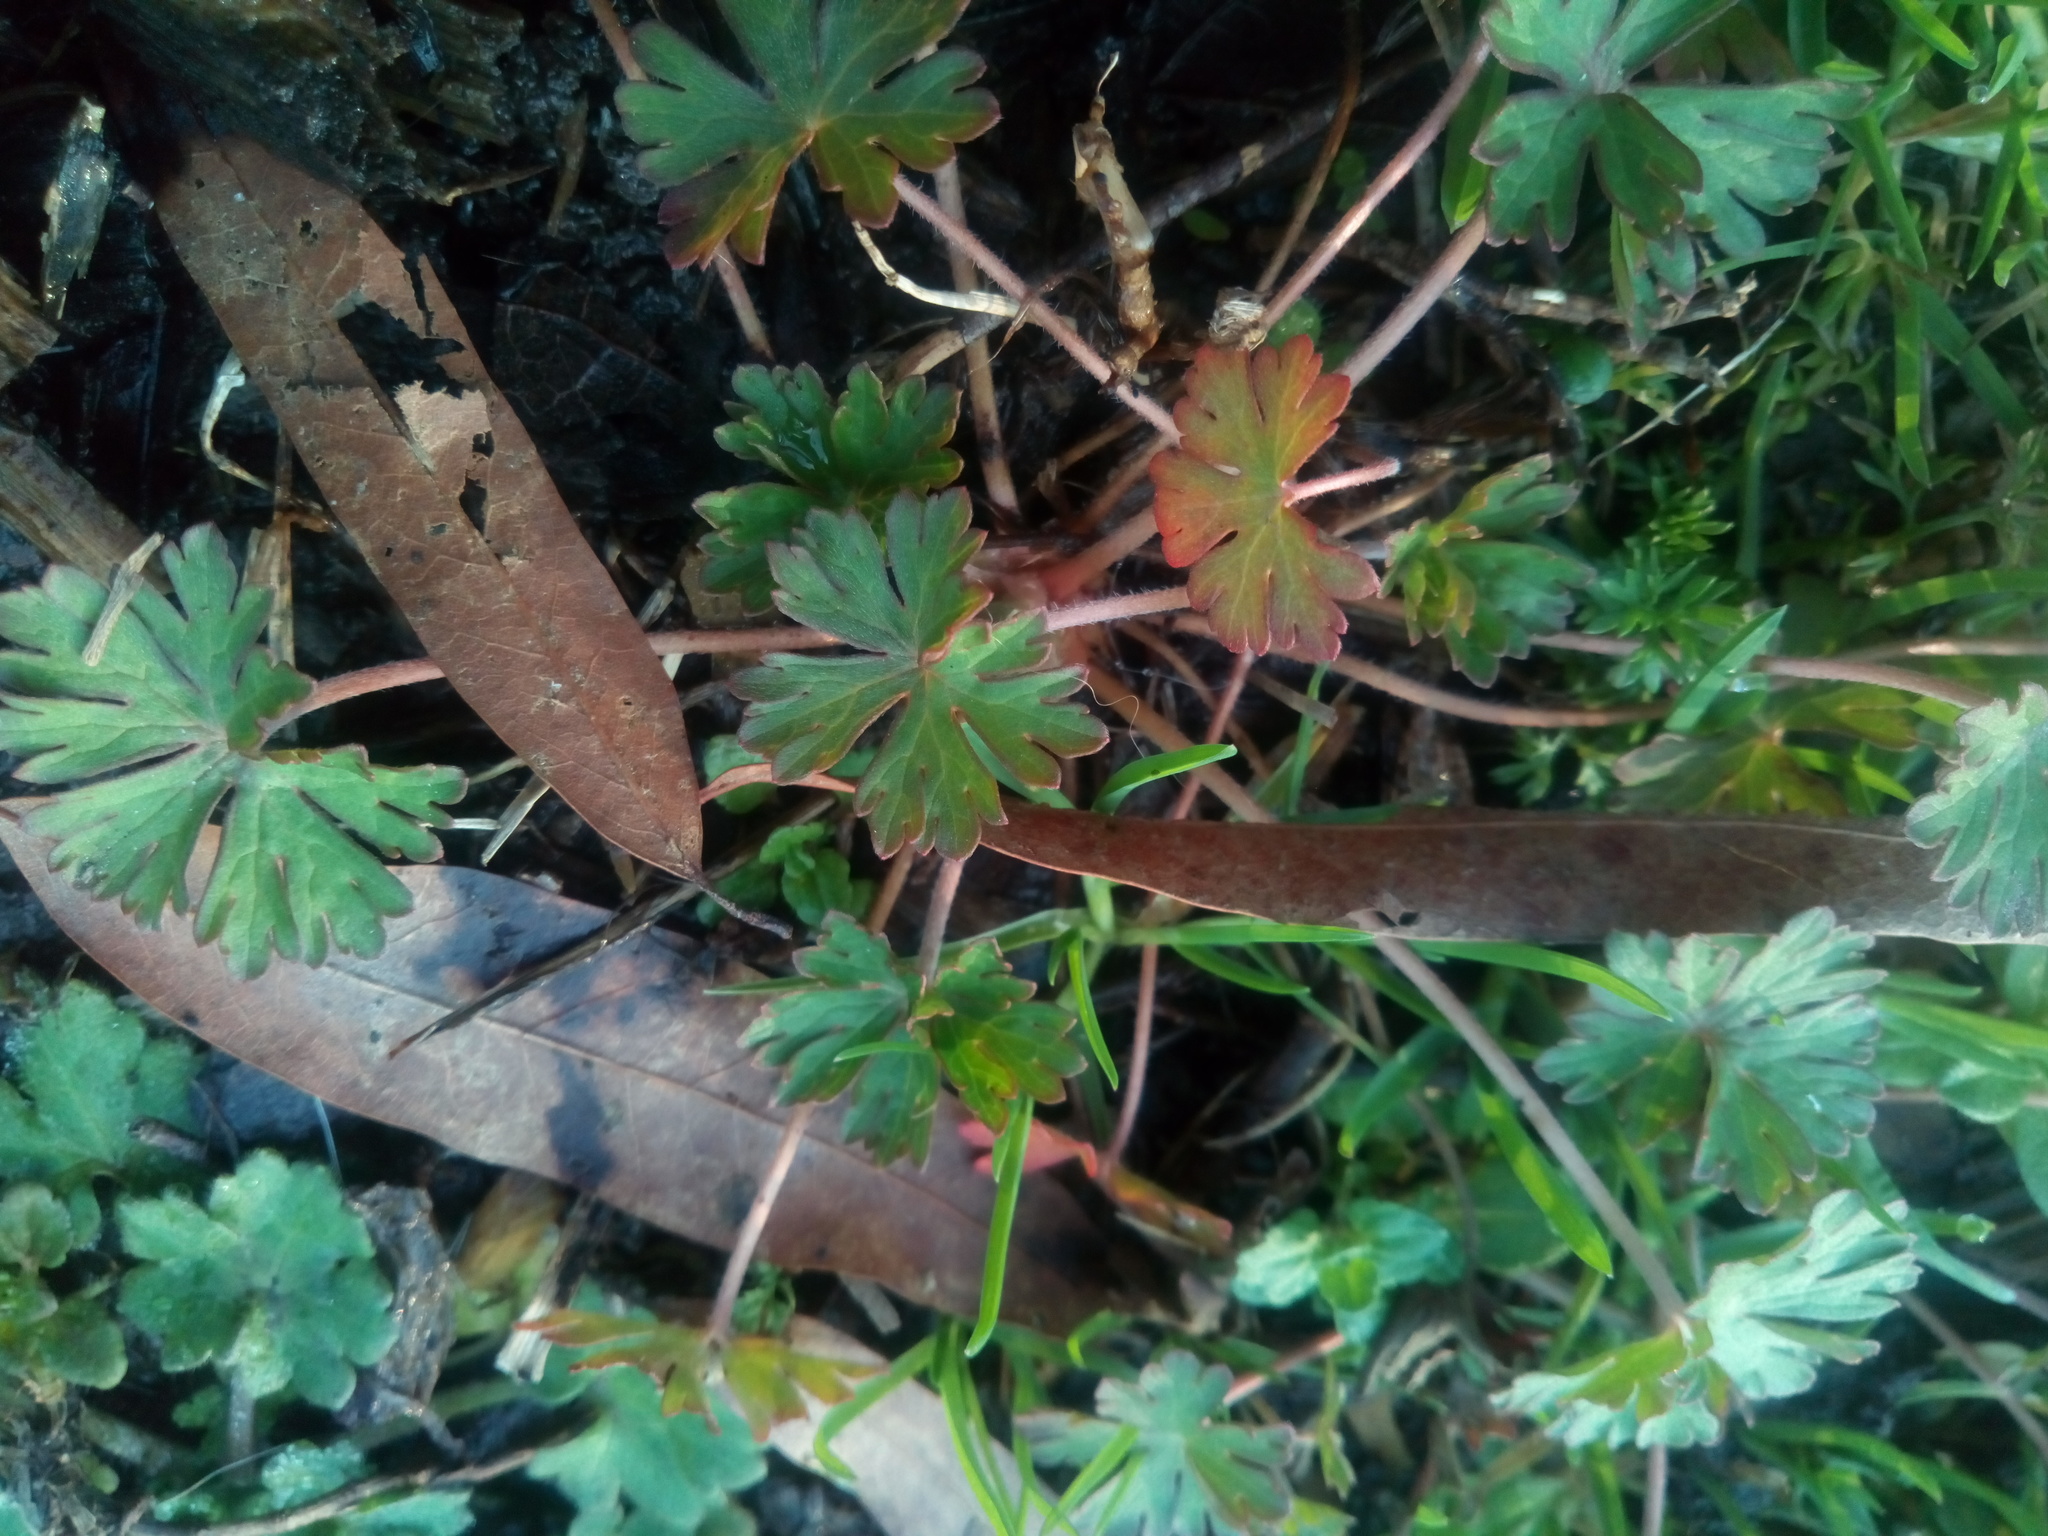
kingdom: Plantae
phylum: Tracheophyta
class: Magnoliopsida
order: Geraniales
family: Geraniaceae
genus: Geranium
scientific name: Geranium carolinianum
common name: Carolina crane's-bill
